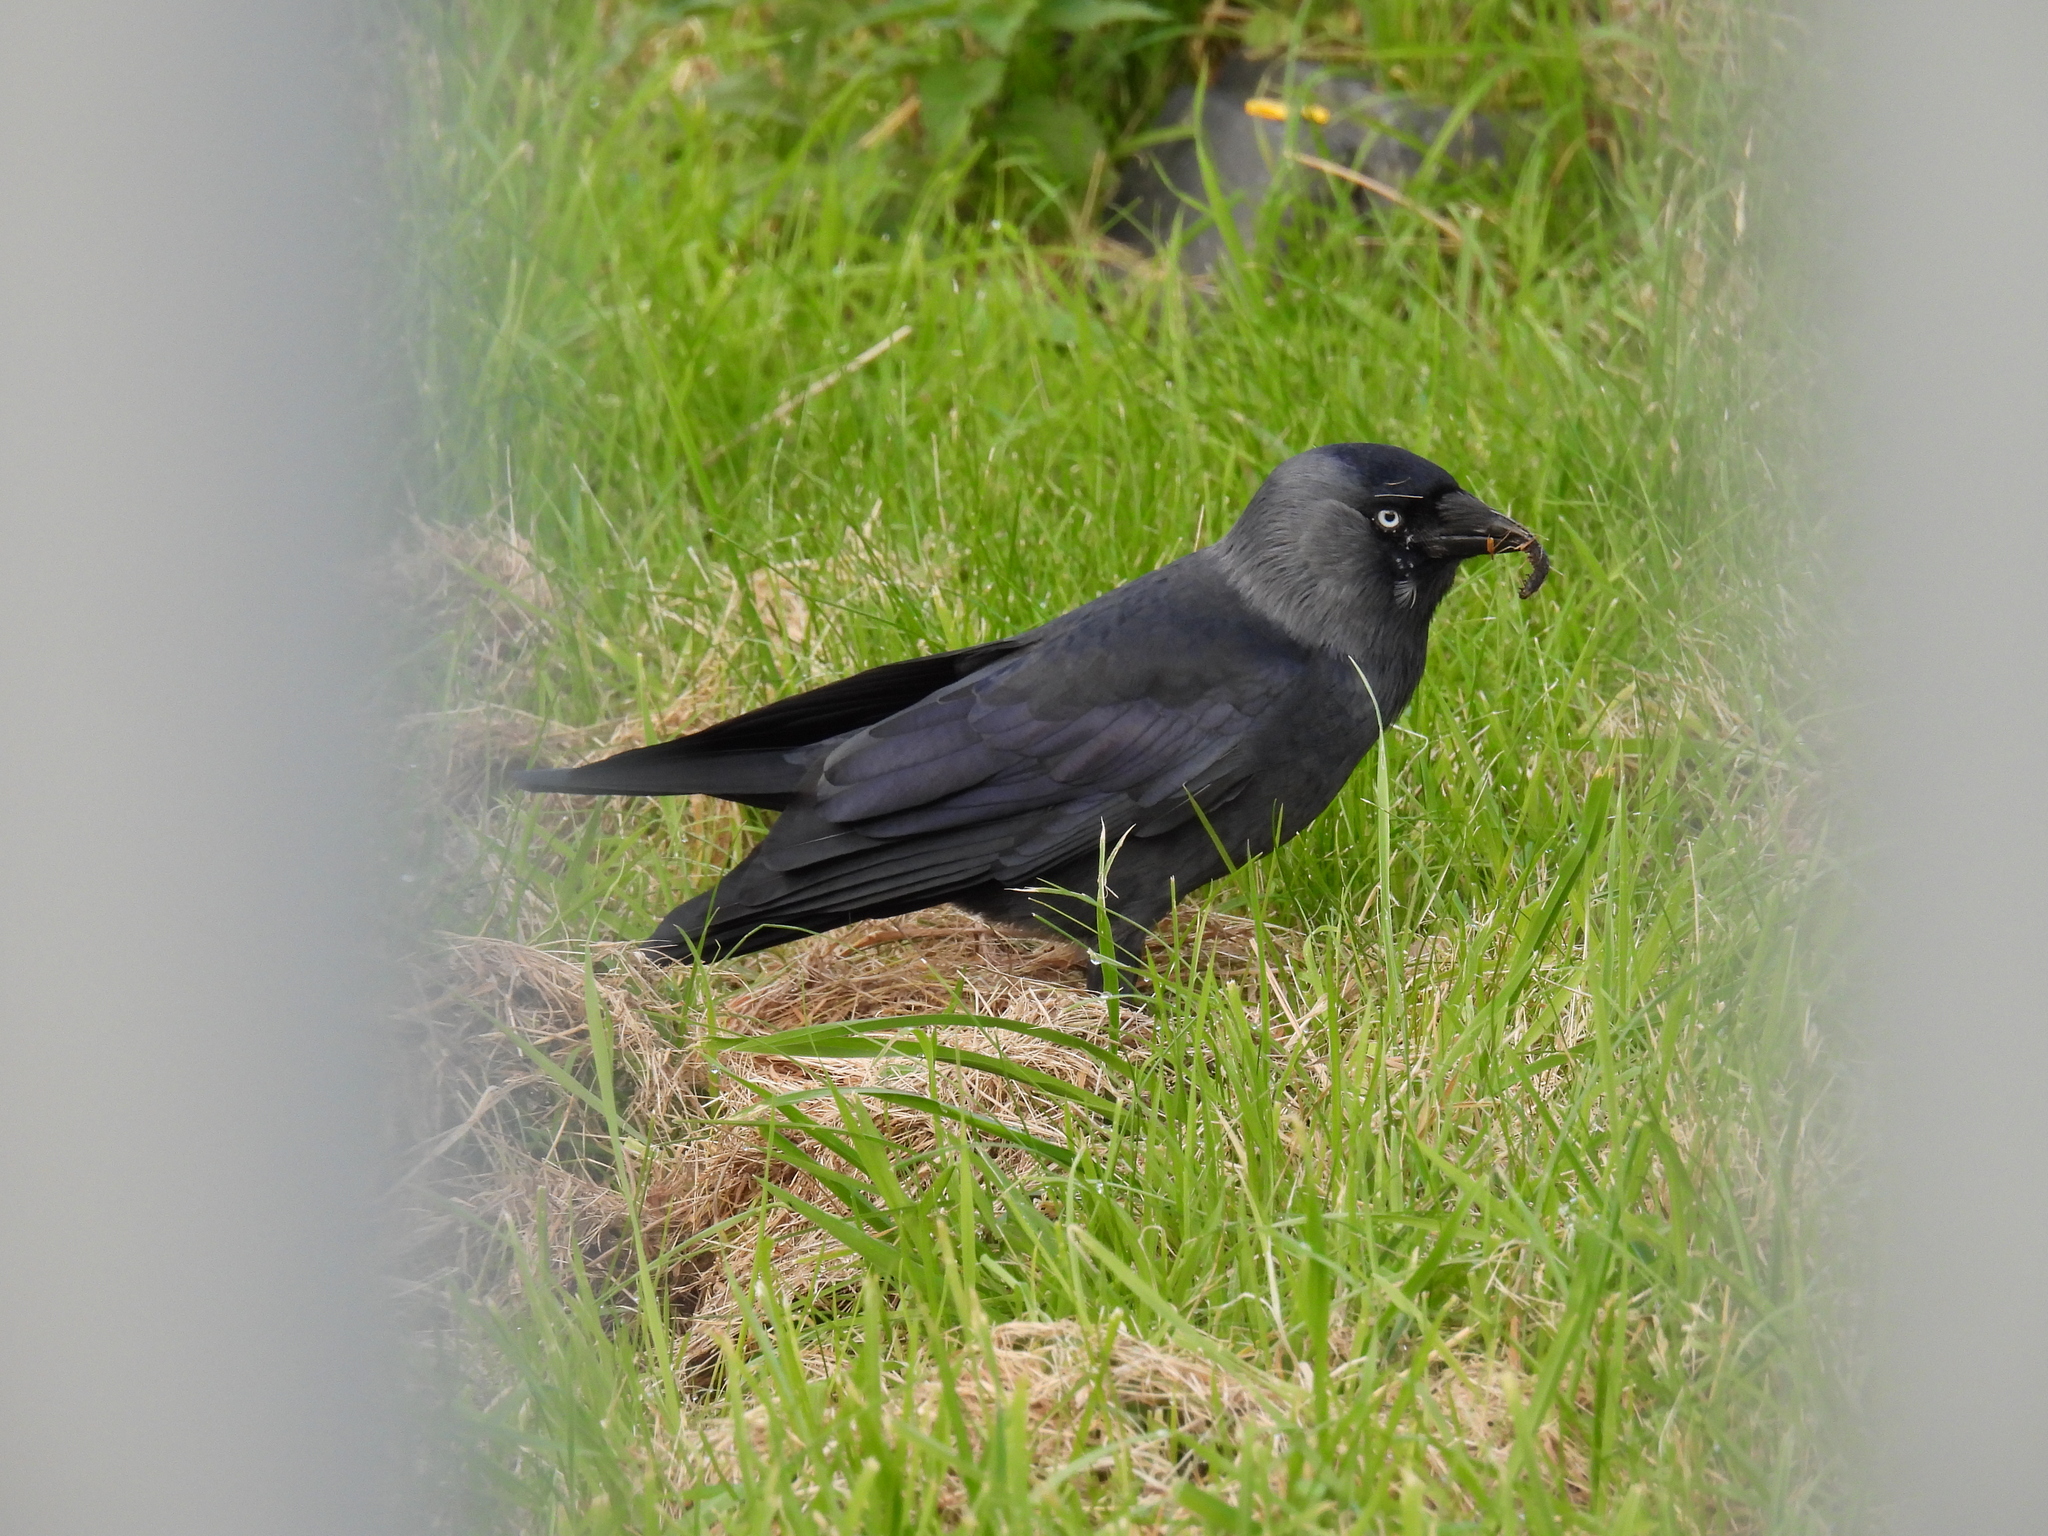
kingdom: Animalia
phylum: Chordata
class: Aves
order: Passeriformes
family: Corvidae
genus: Coloeus
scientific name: Coloeus monedula
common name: Western jackdaw
